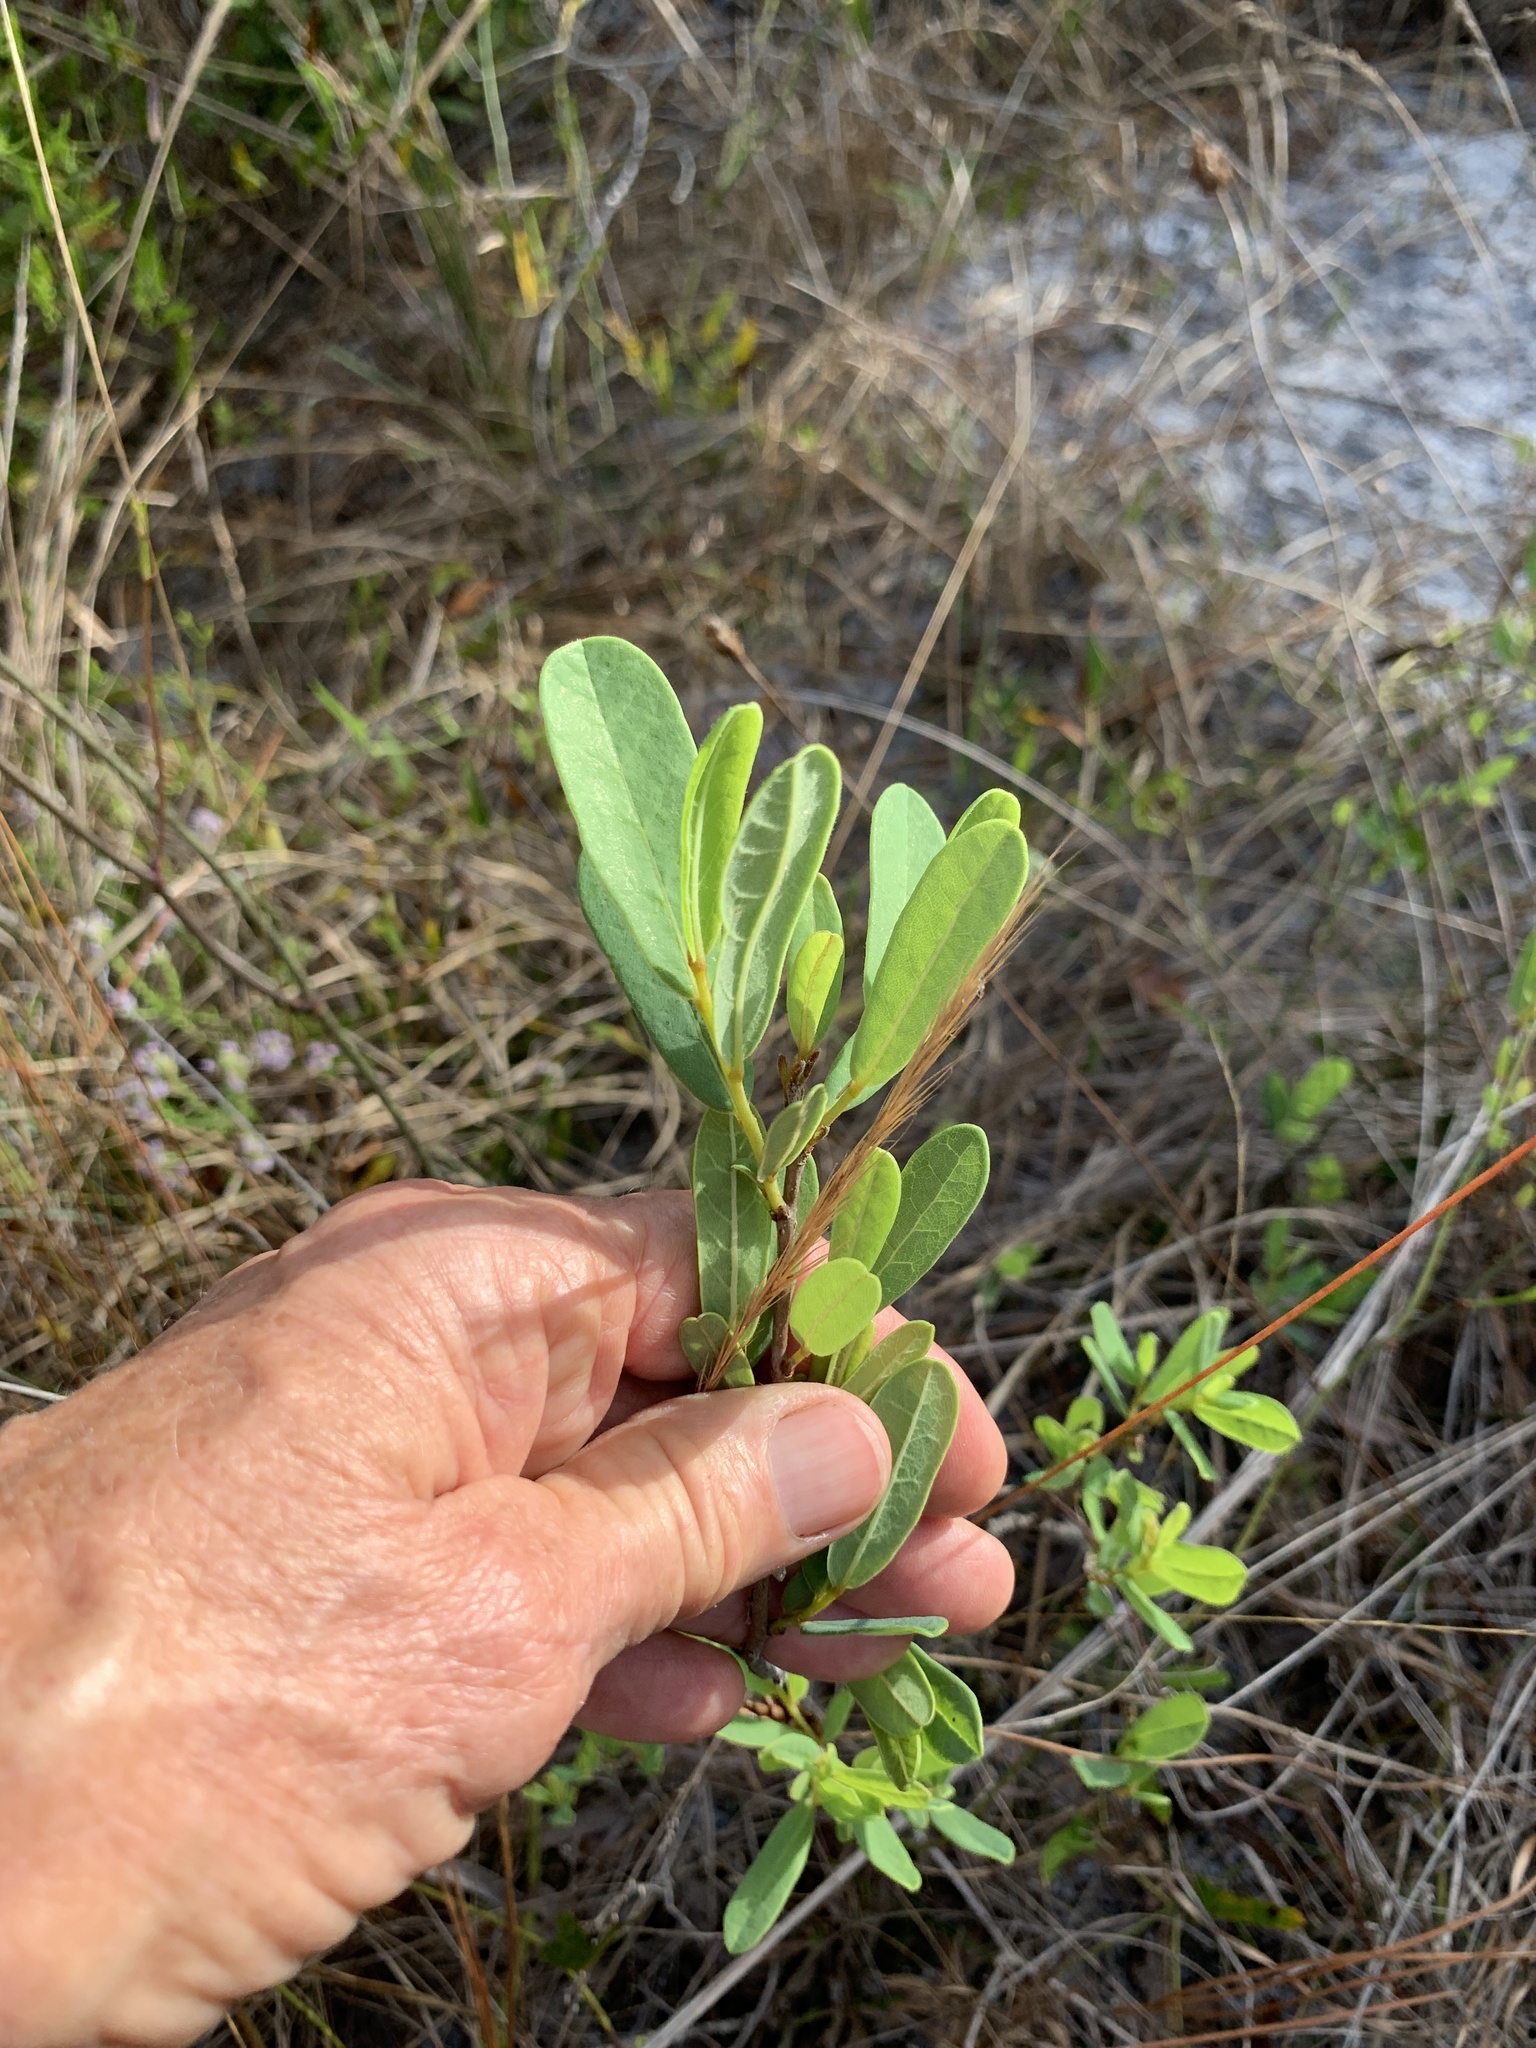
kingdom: Plantae
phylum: Tracheophyta
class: Magnoliopsida
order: Magnoliales
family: Annonaceae
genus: Asimina
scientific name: Asimina reticulata
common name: Flag pawpaw
